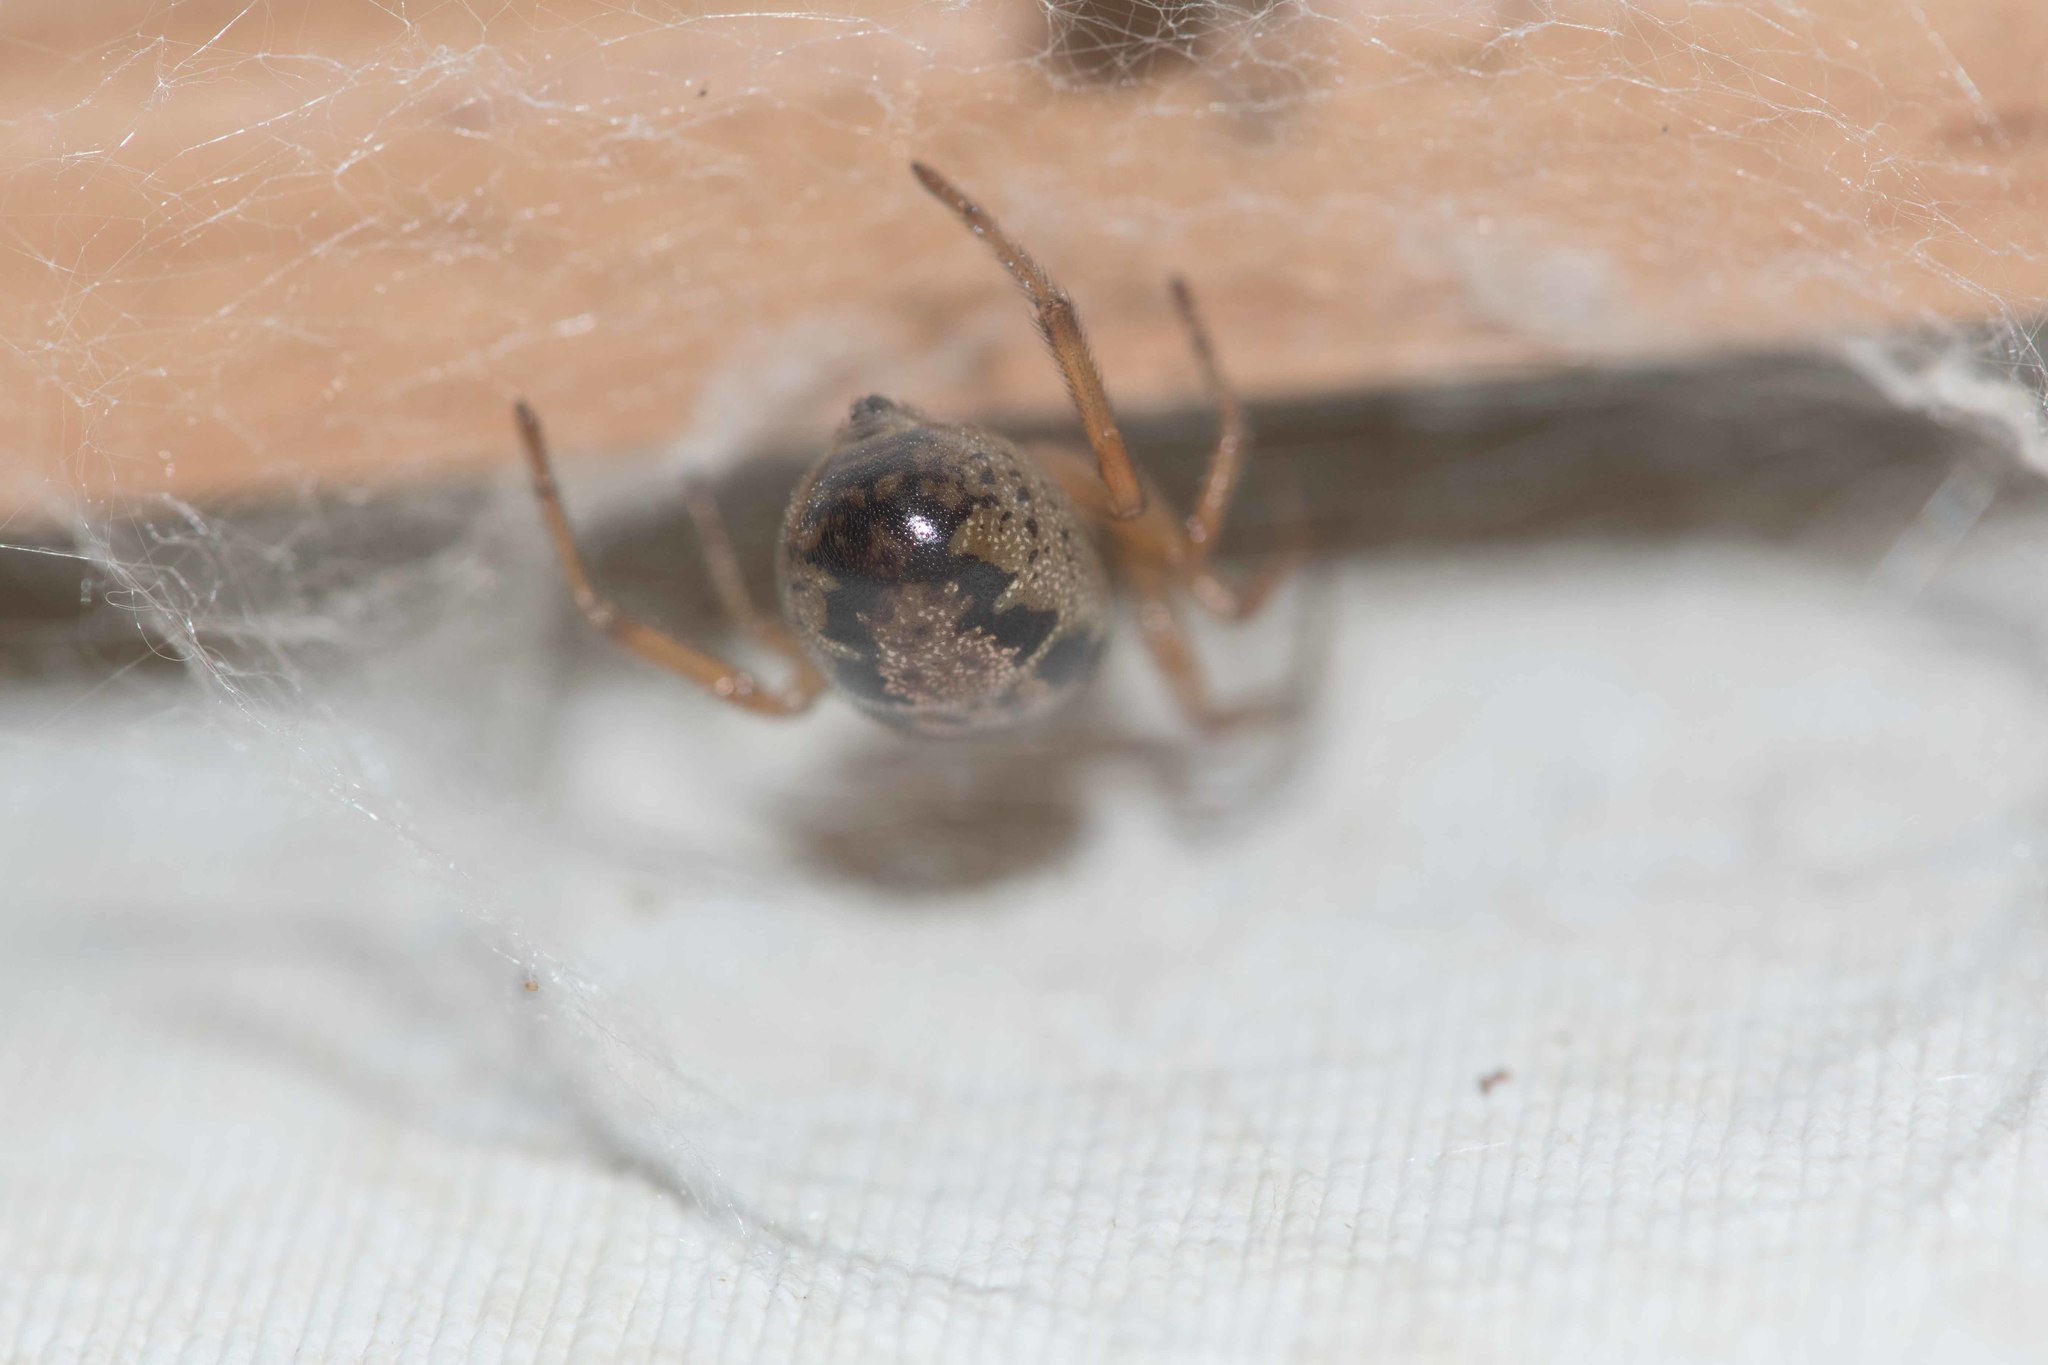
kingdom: Animalia
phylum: Arthropoda
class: Arachnida
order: Araneae
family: Theridiidae
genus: Steatoda
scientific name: Steatoda nobilis
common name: Cobweb weaver
